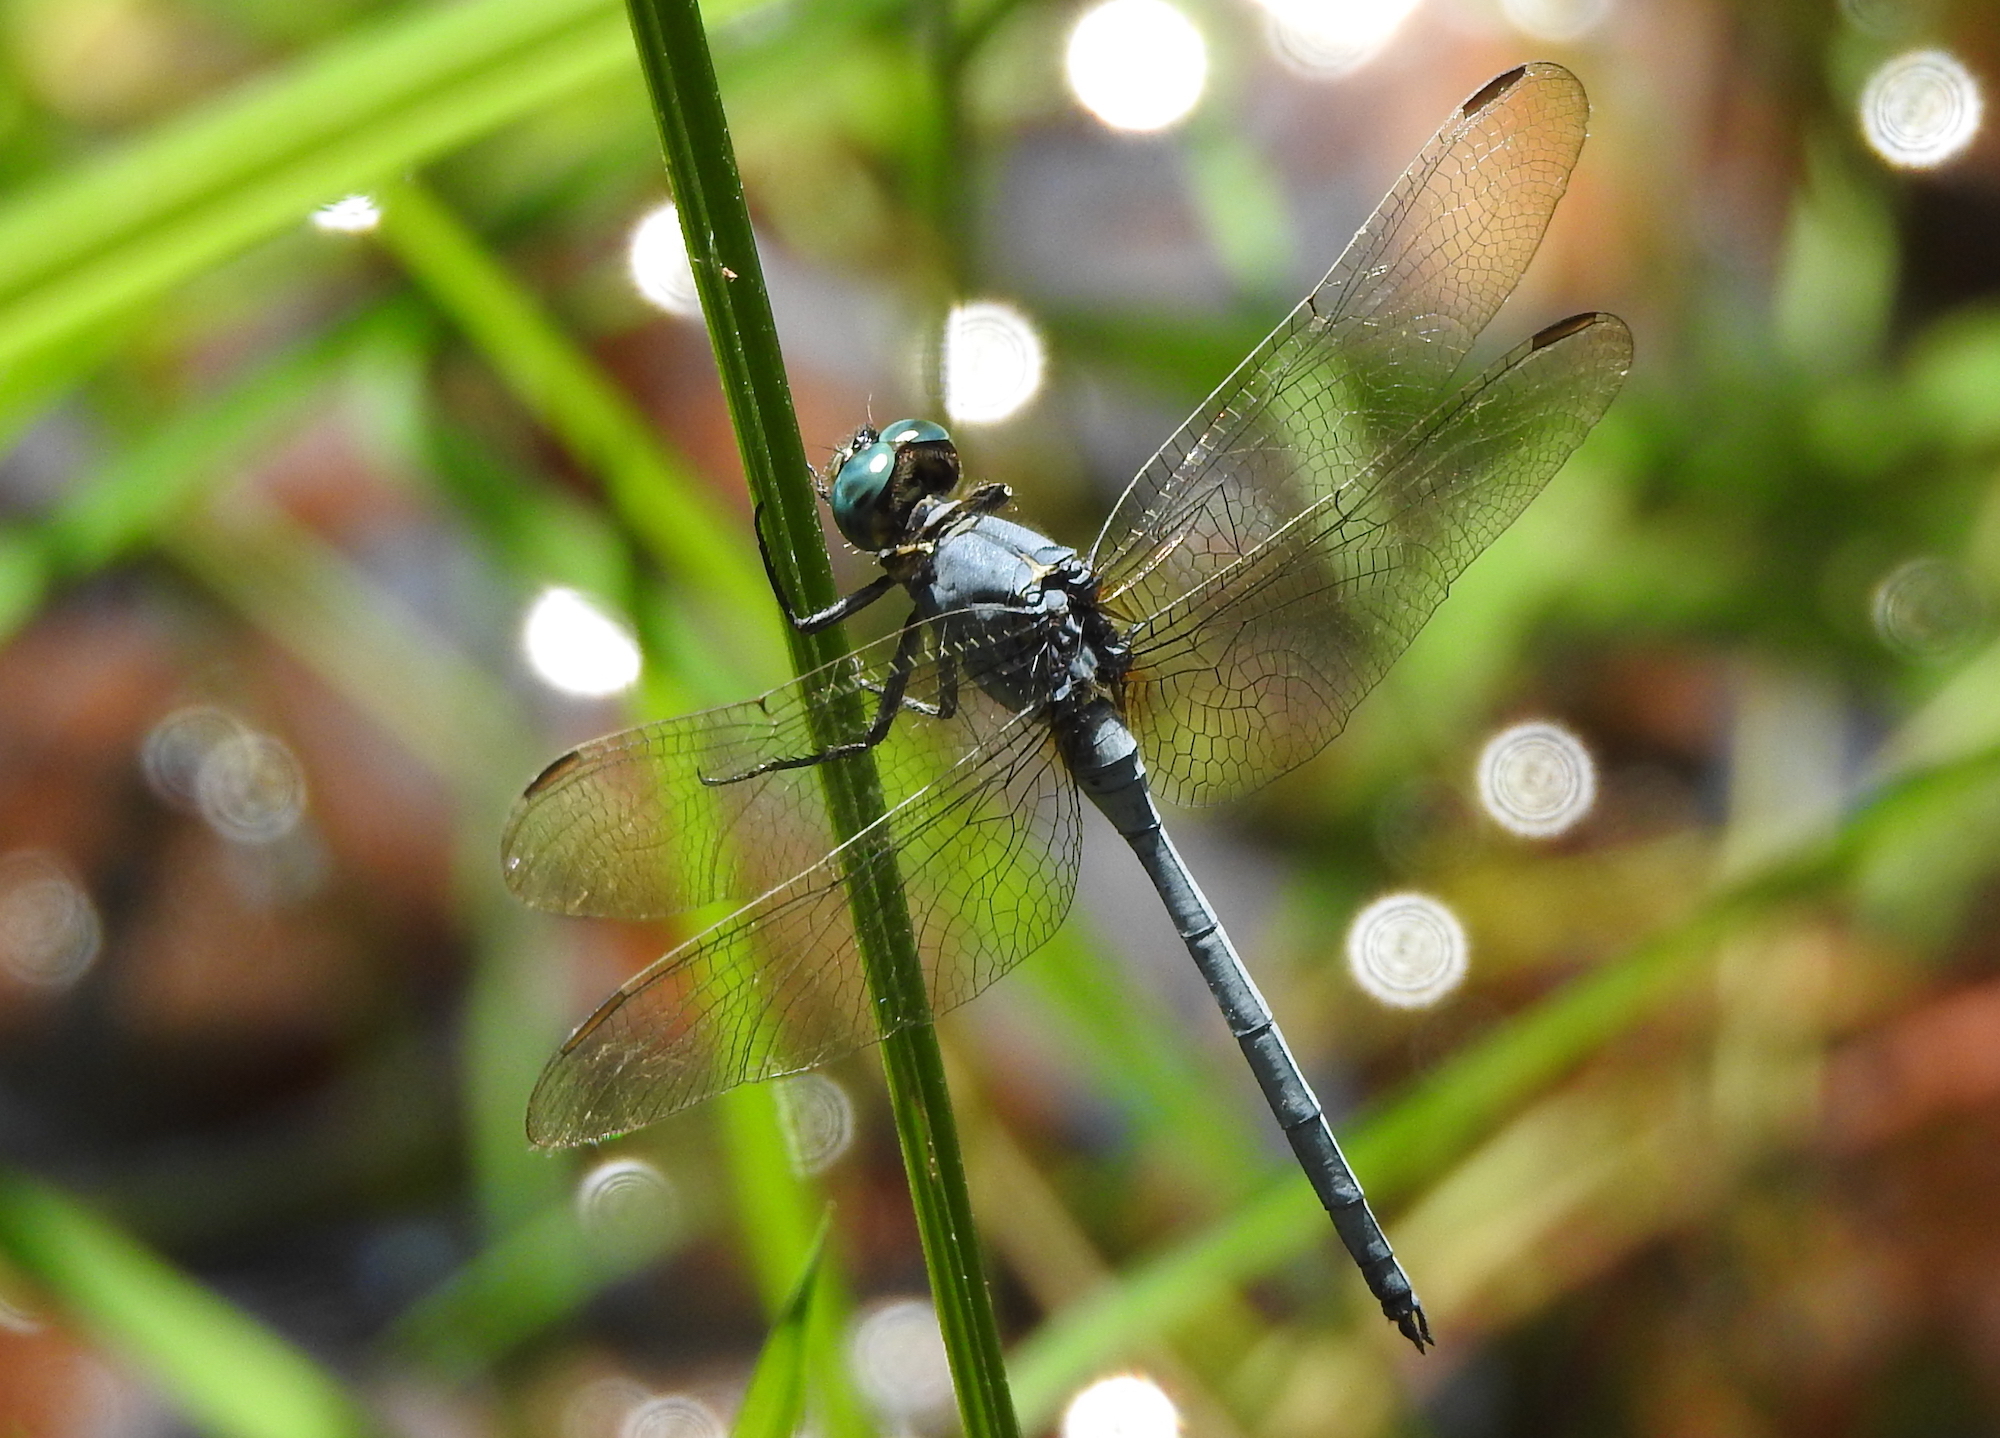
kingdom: Animalia
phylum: Arthropoda
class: Insecta
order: Odonata
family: Libellulidae
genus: Orthetrum
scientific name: Orthetrum luzonicum
